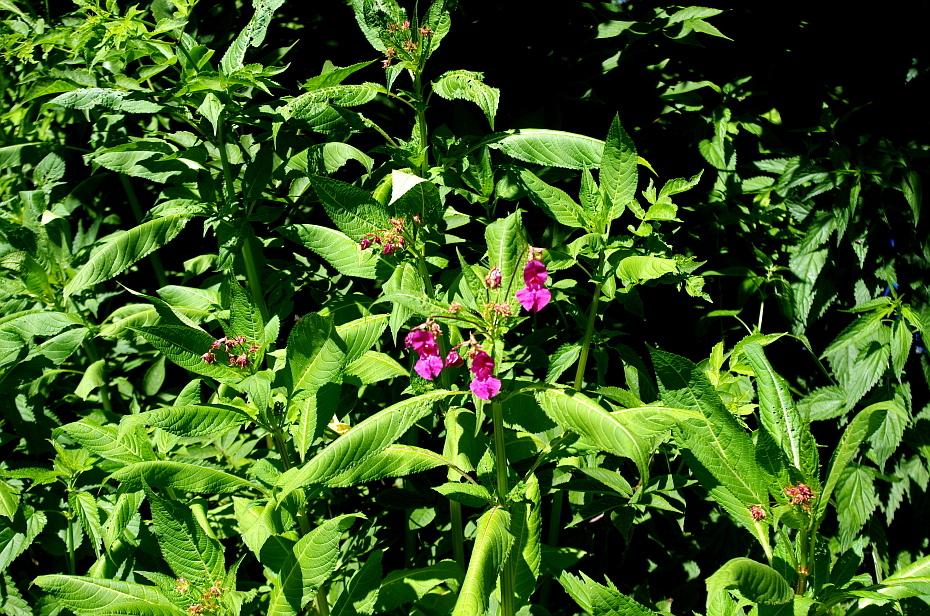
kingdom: Plantae
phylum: Tracheophyta
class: Magnoliopsida
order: Ericales
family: Balsaminaceae
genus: Impatiens
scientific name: Impatiens glandulifera
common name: Himalayan balsam
